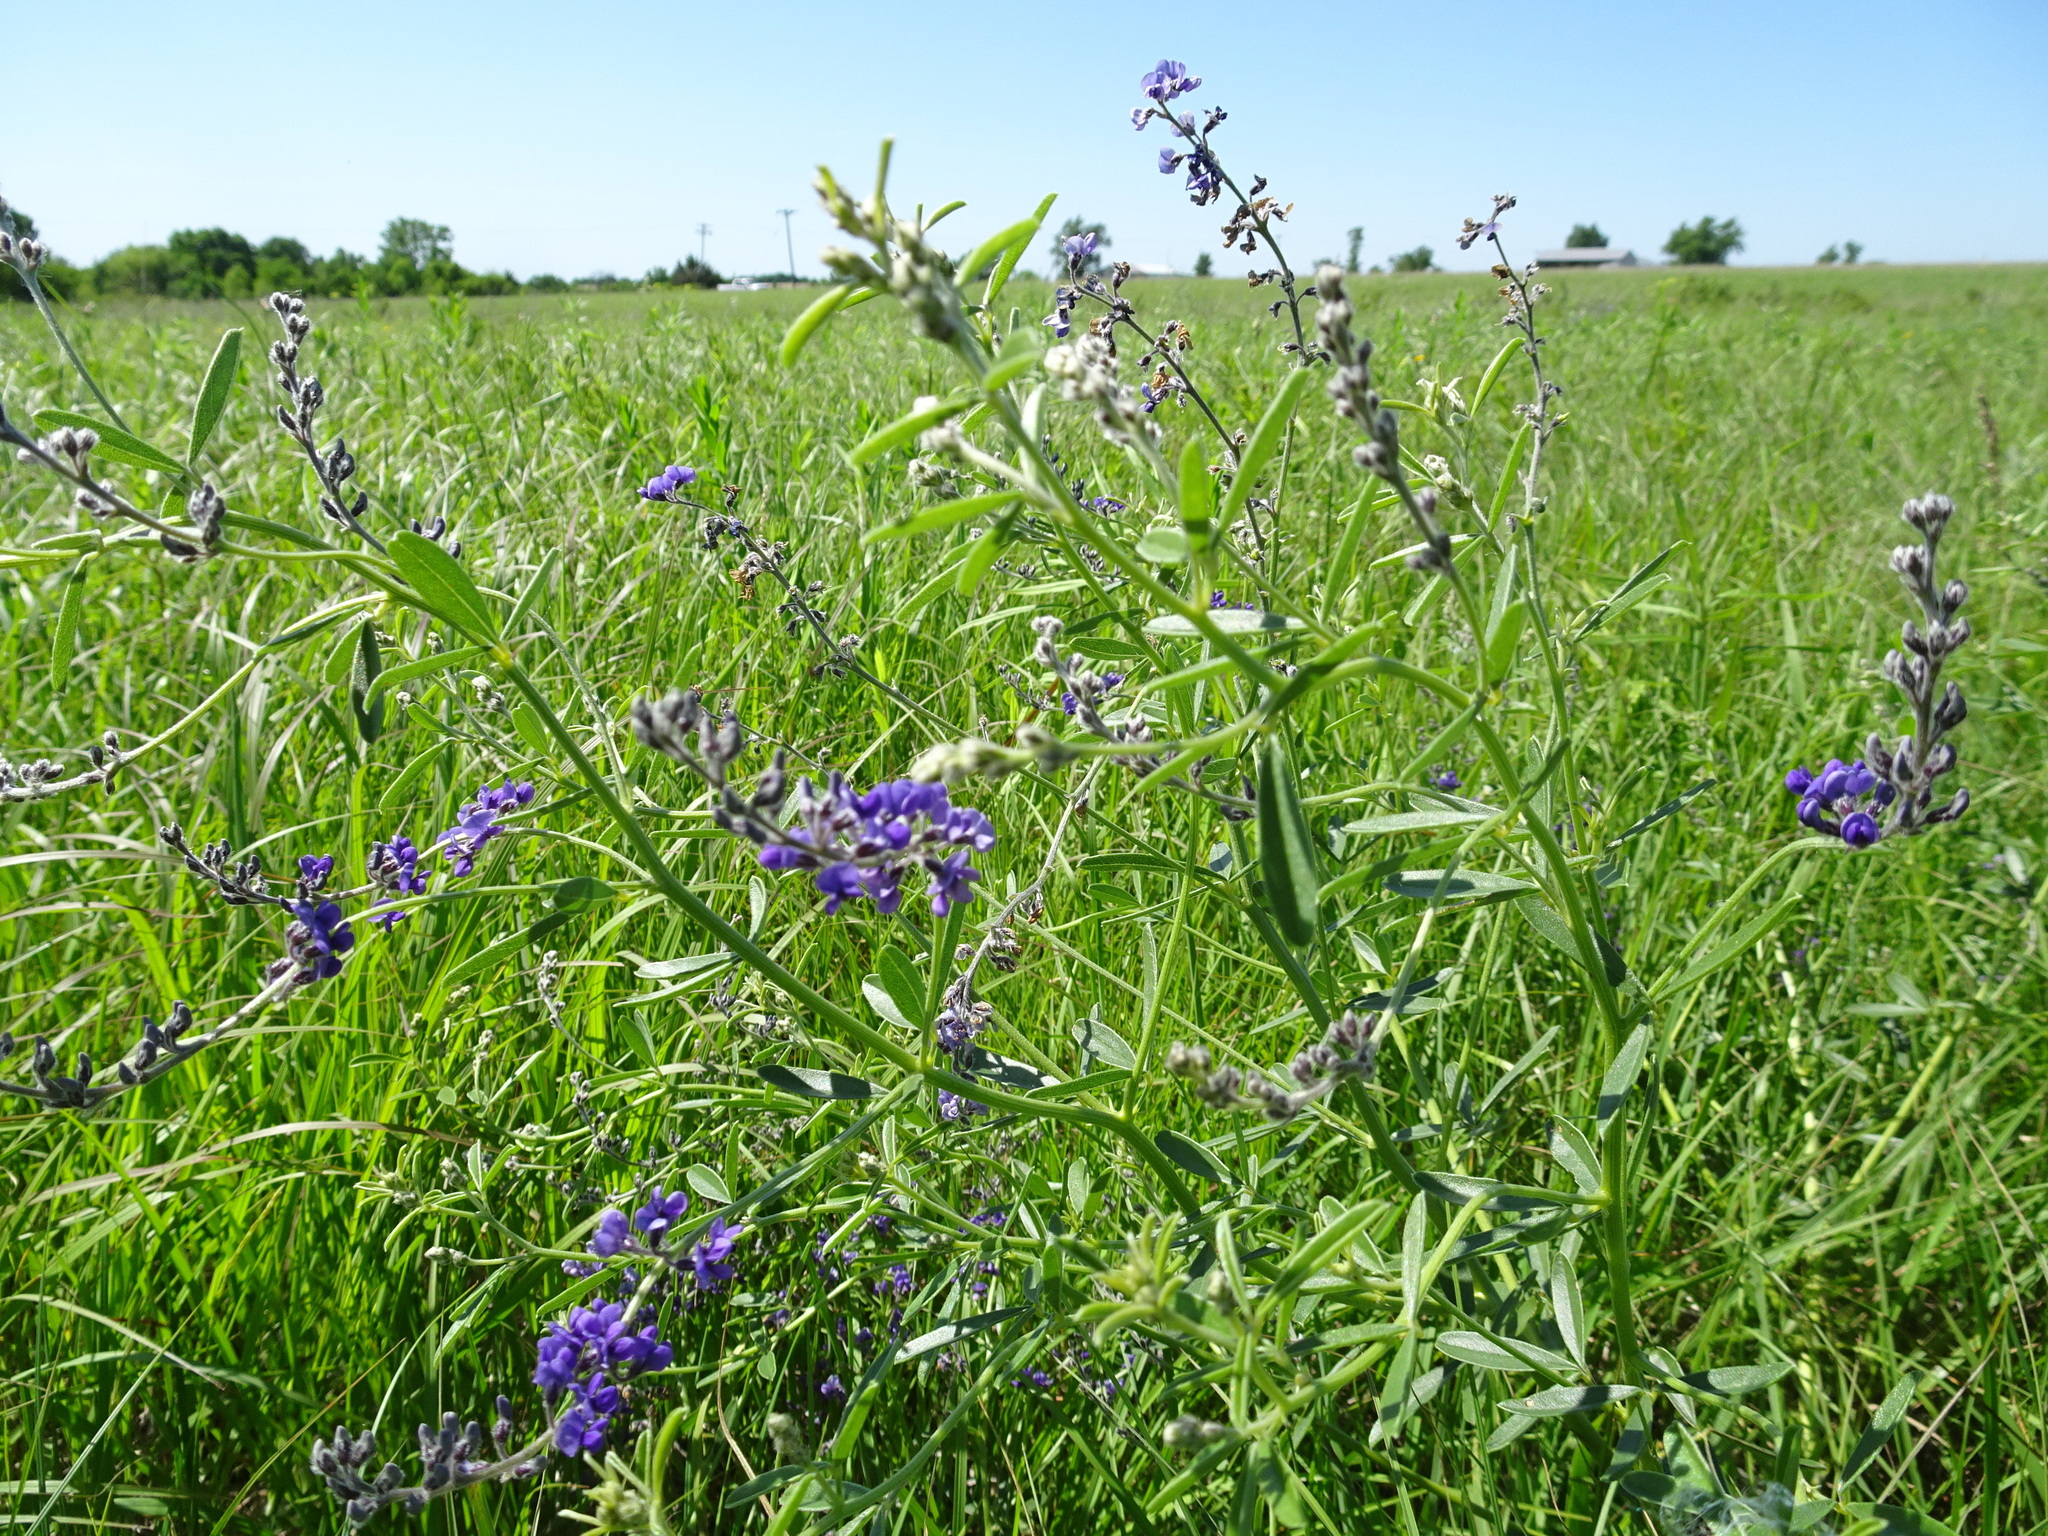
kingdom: Plantae
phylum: Tracheophyta
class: Magnoliopsida
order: Fabales
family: Fabaceae
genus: Pediomelum
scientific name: Pediomelum tenuiflorum
